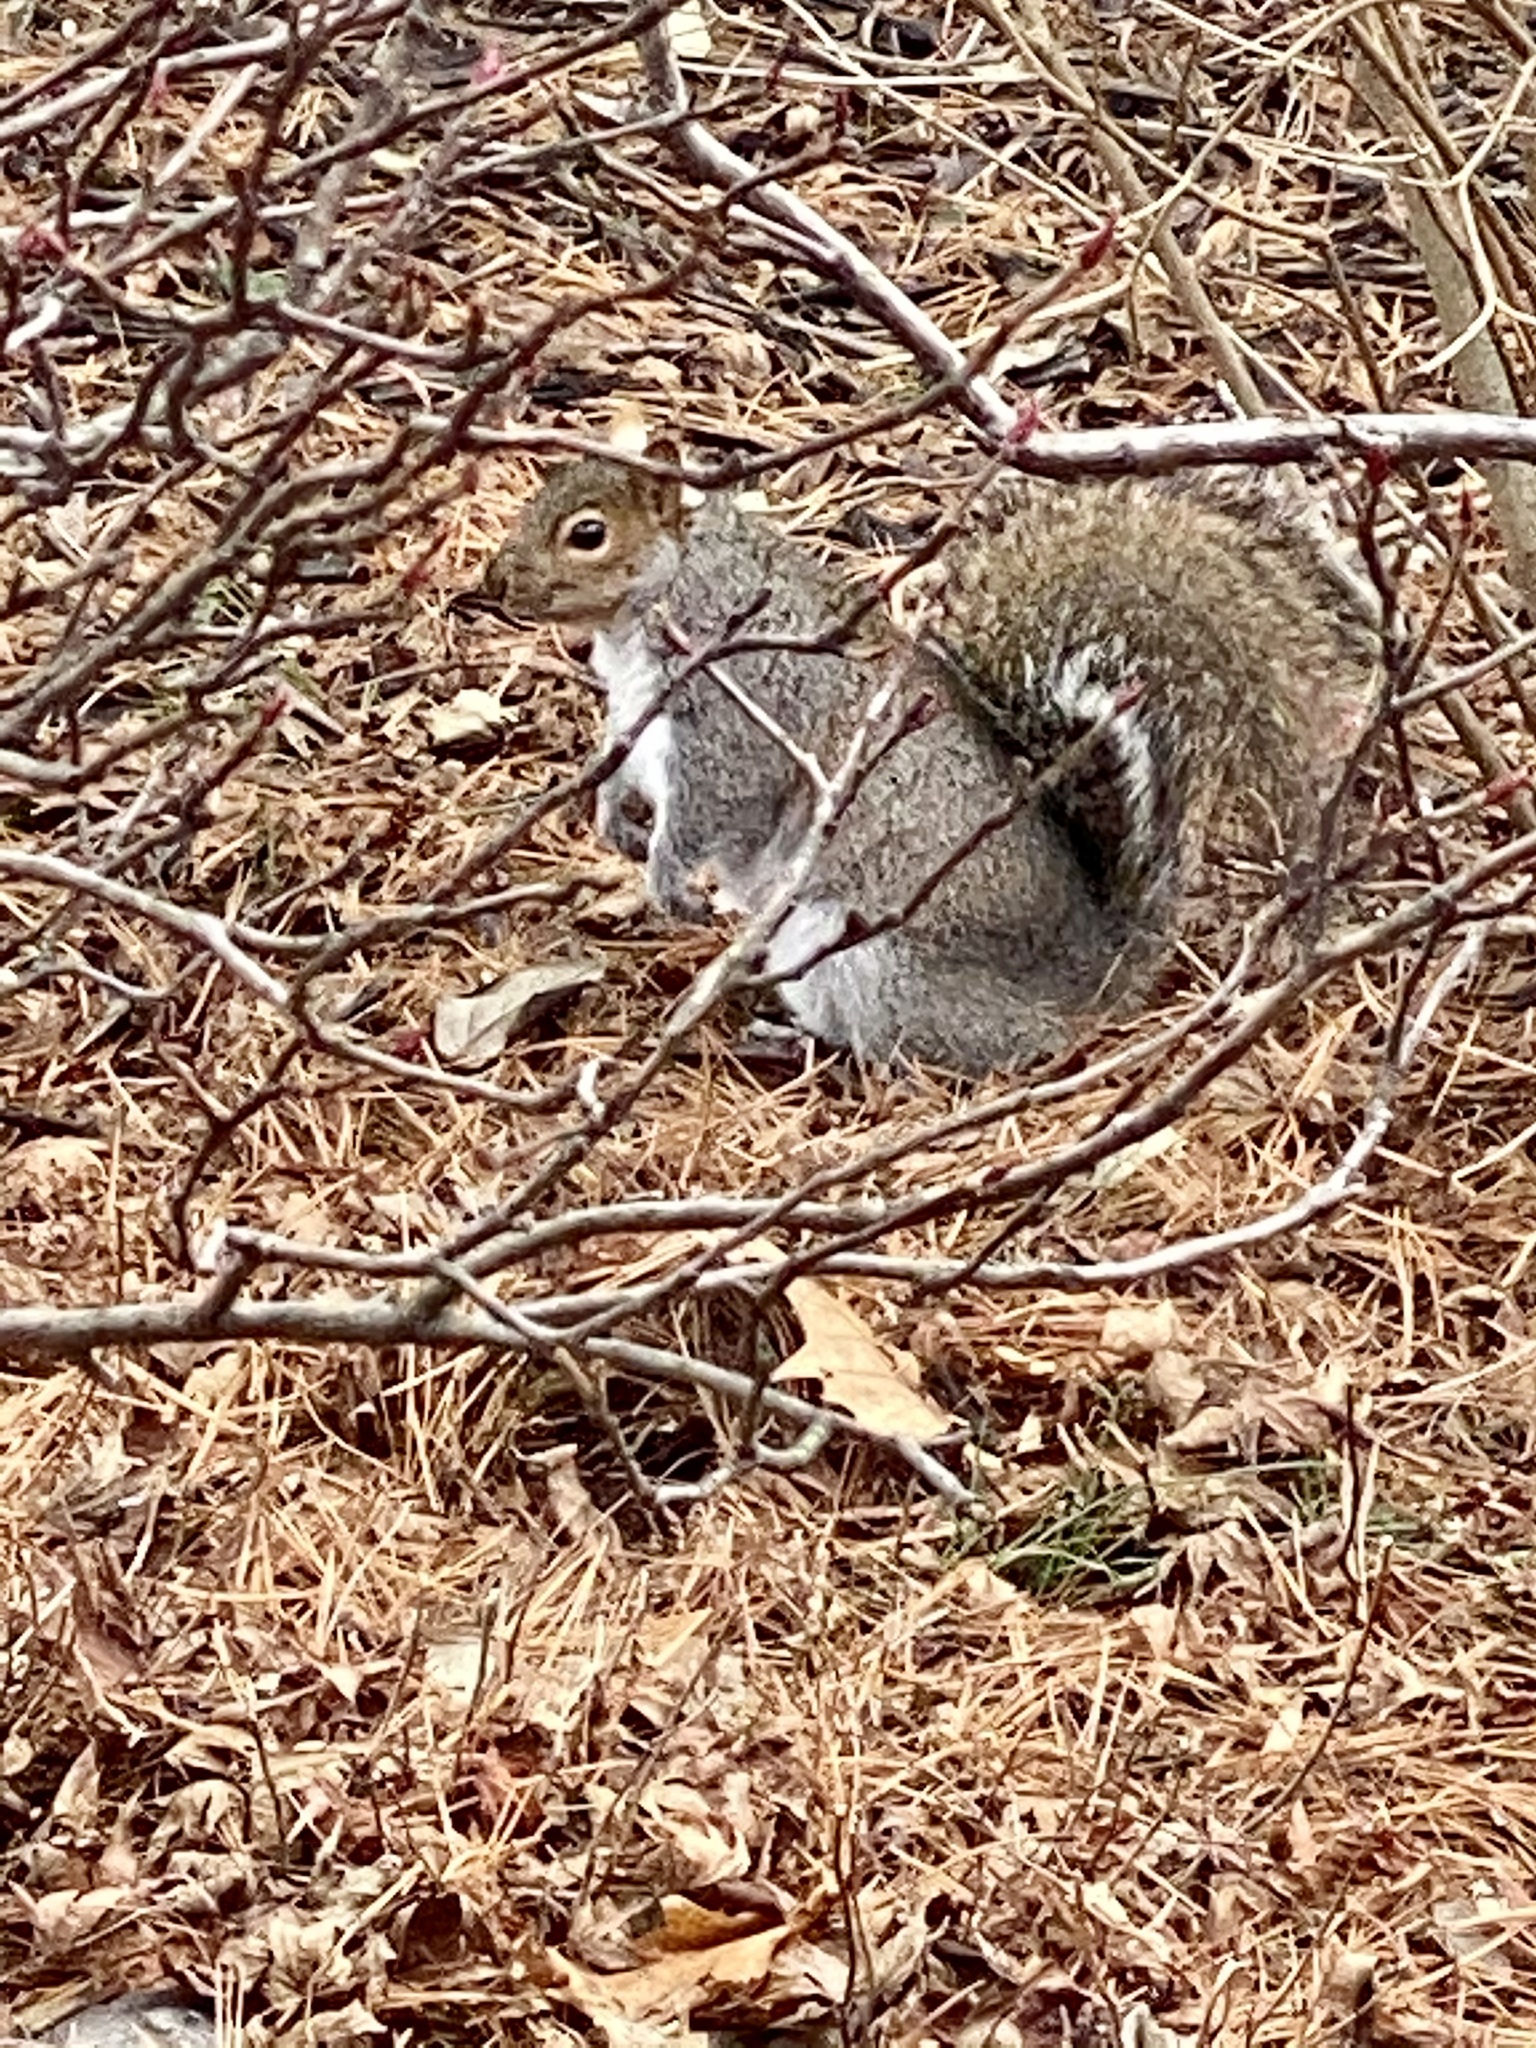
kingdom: Animalia
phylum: Chordata
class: Mammalia
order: Rodentia
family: Sciuridae
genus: Sciurus
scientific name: Sciurus carolinensis
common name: Eastern gray squirrel
